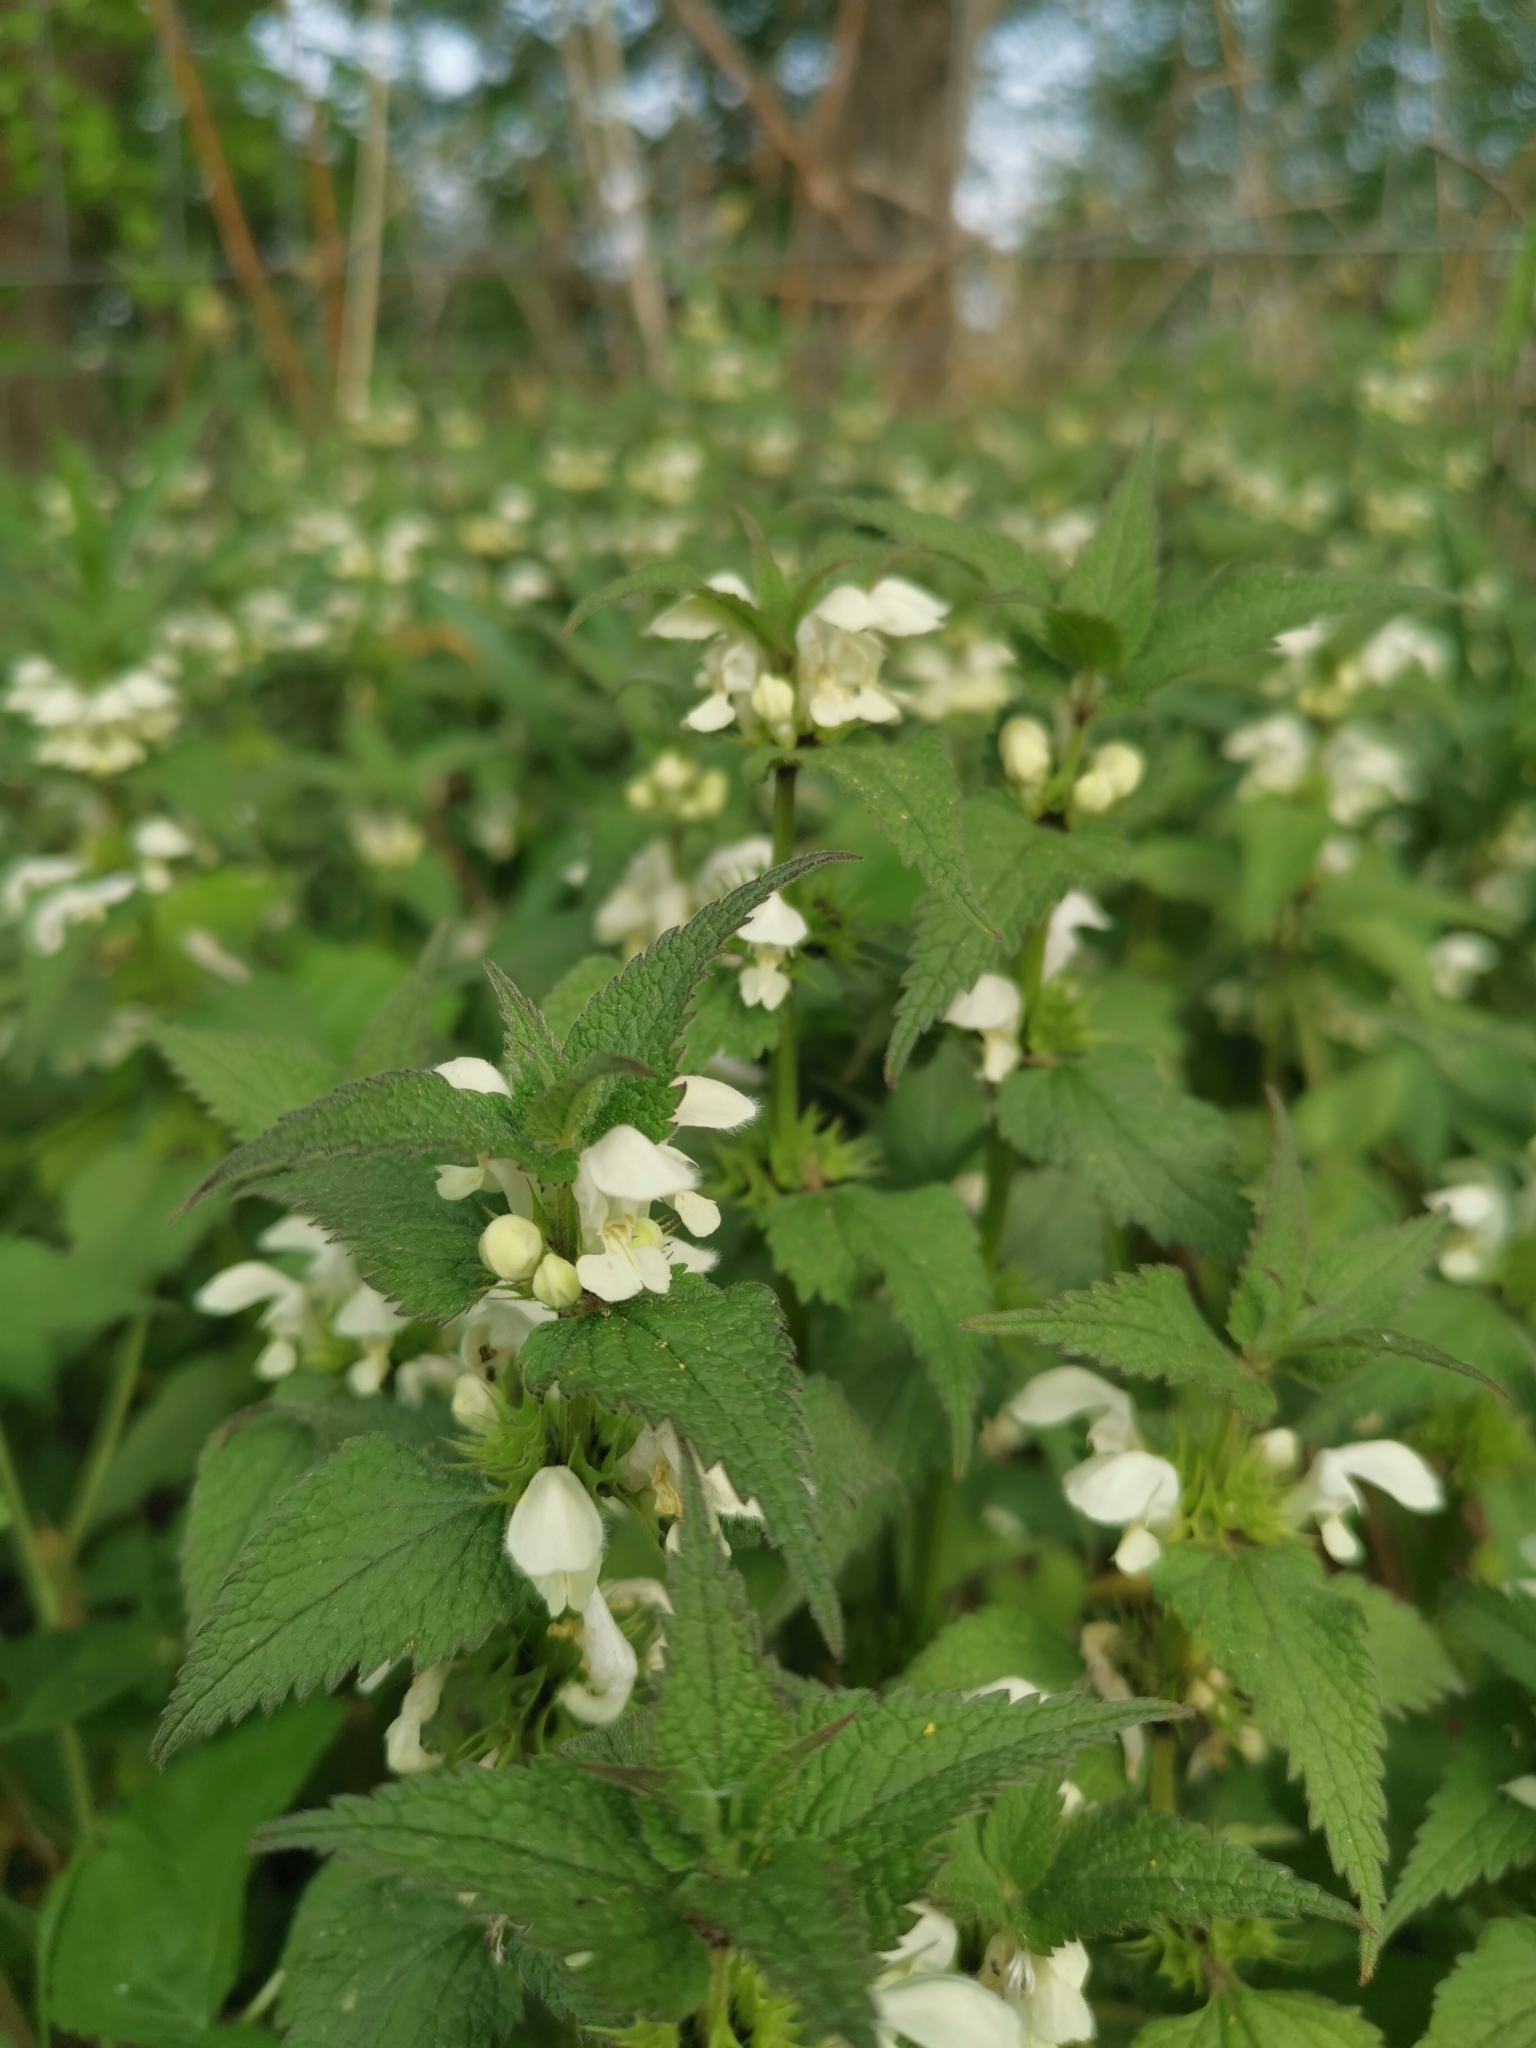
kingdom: Plantae
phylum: Tracheophyta
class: Magnoliopsida
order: Lamiales
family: Lamiaceae
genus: Lamium
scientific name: Lamium album
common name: White dead-nettle
